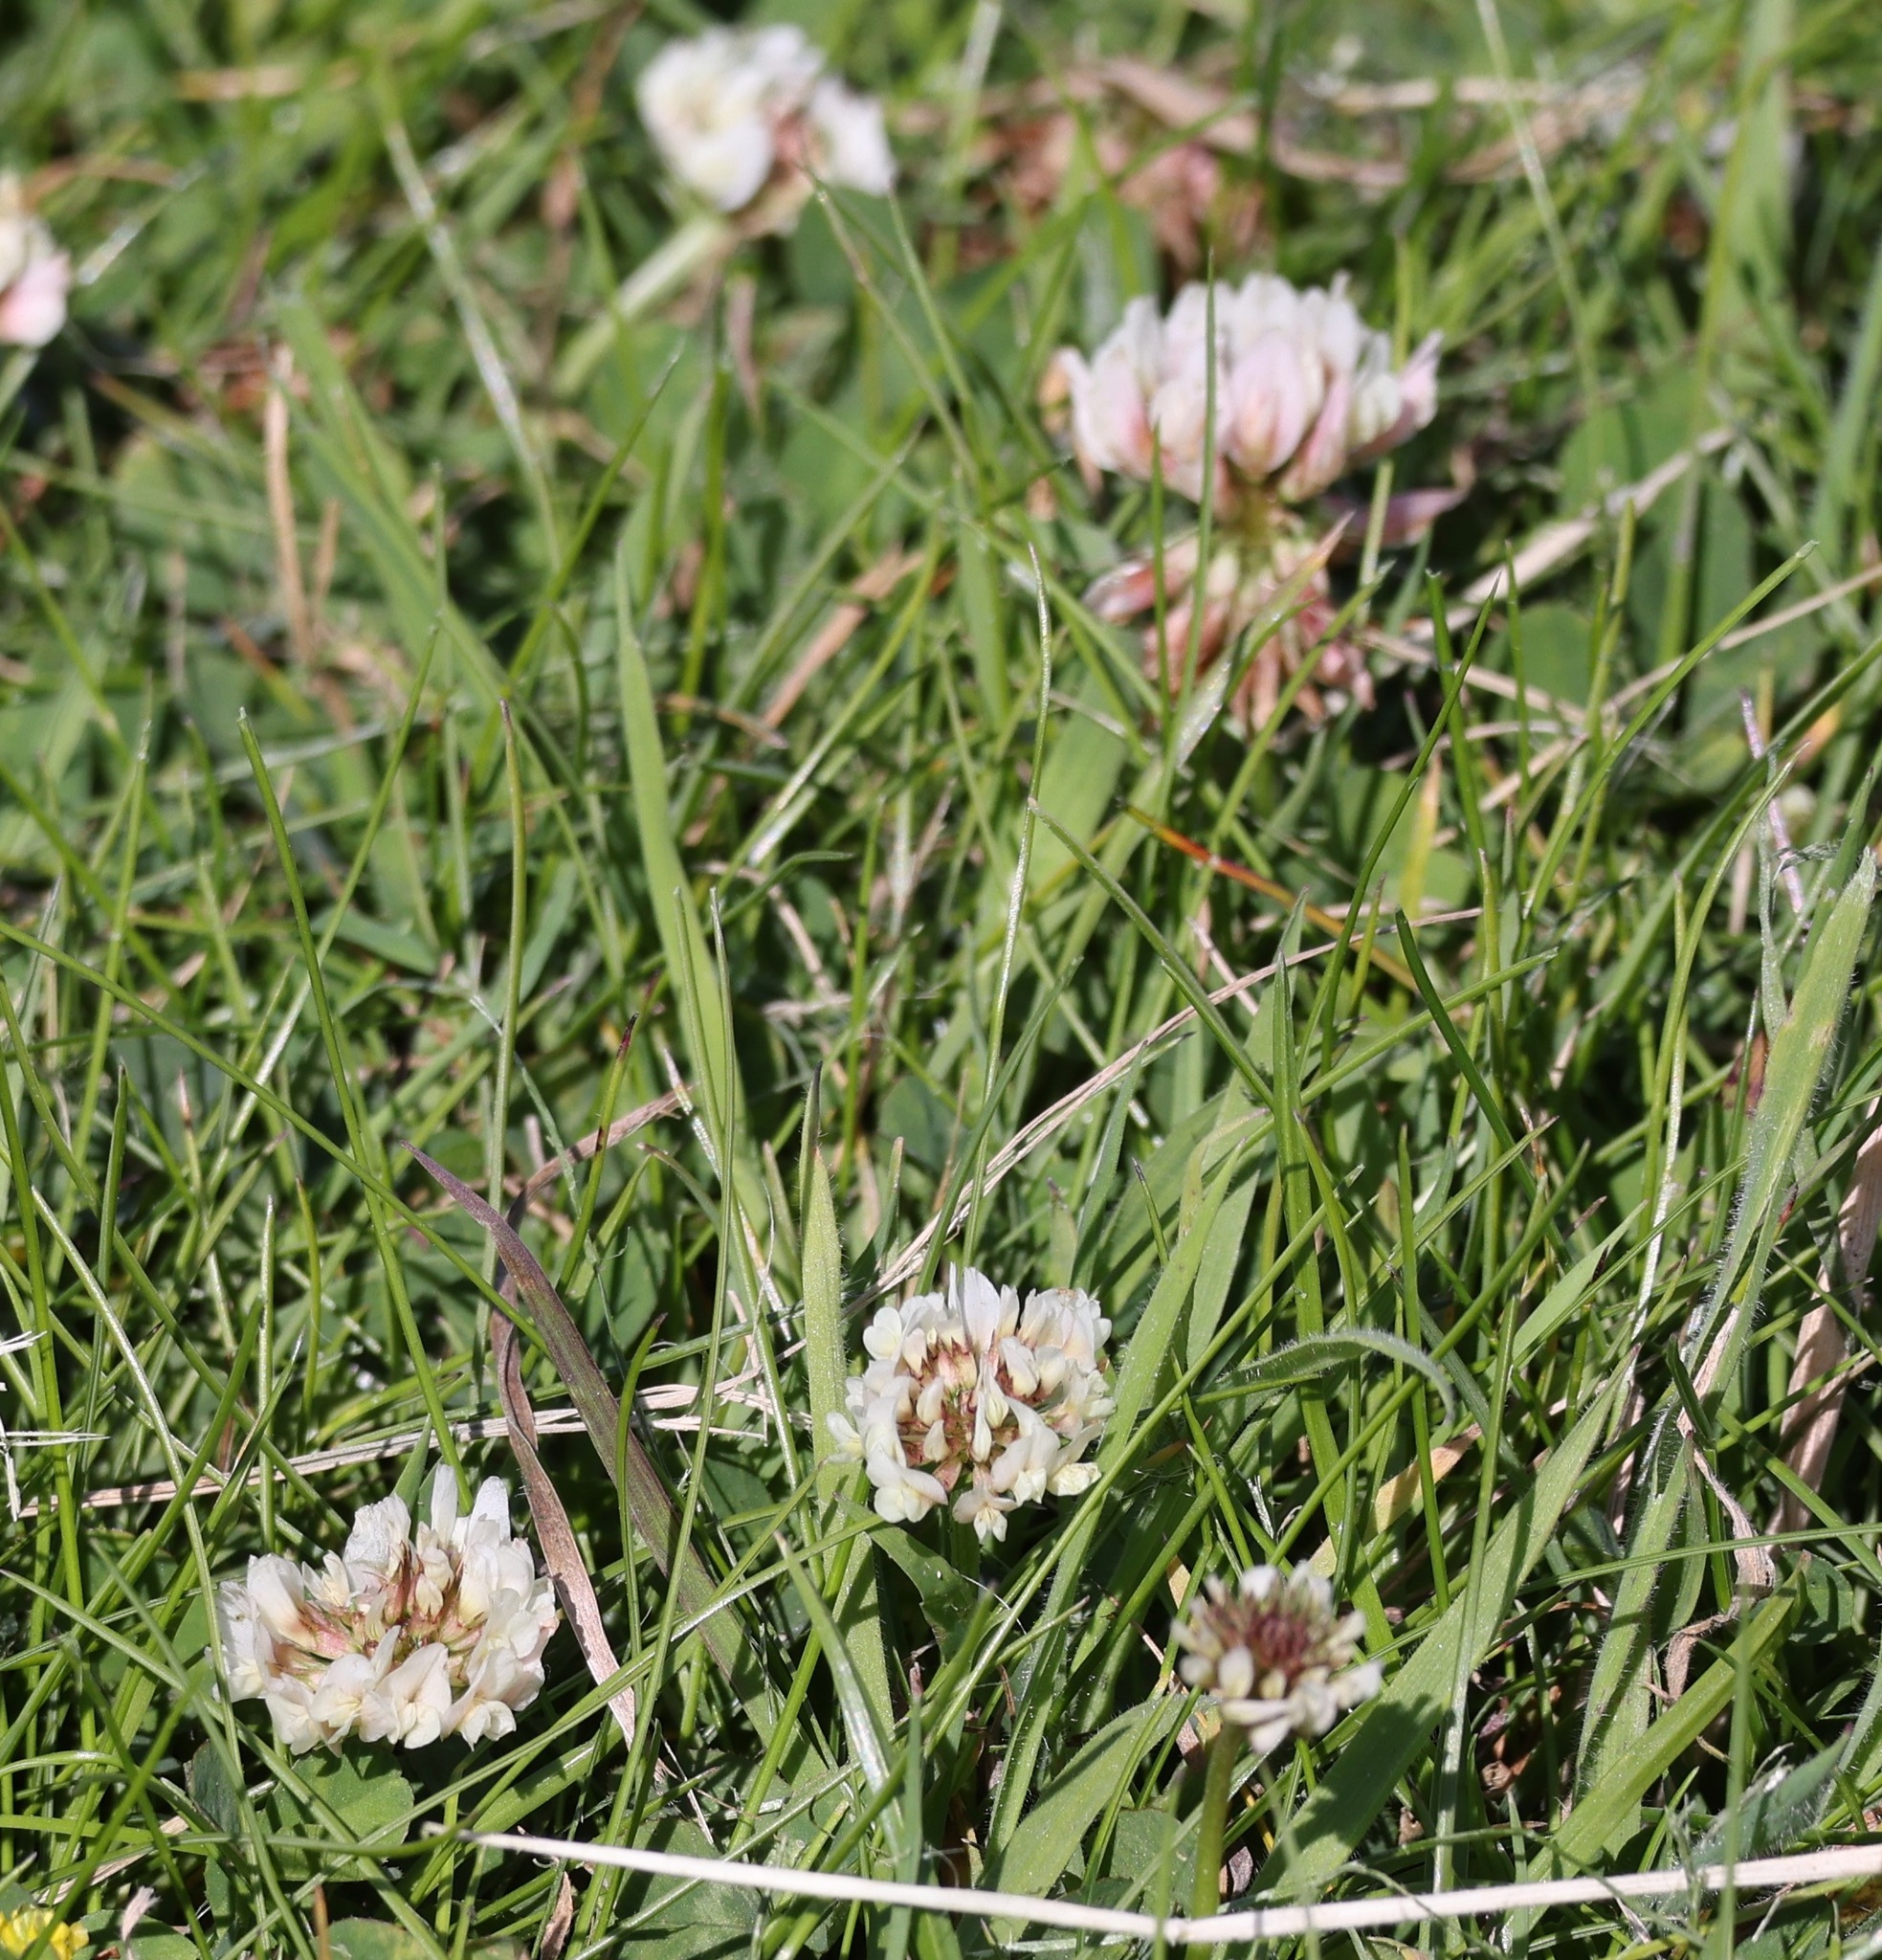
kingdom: Plantae
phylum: Tracheophyta
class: Magnoliopsida
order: Fabales
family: Fabaceae
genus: Trifolium
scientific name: Trifolium repens
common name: White clover
